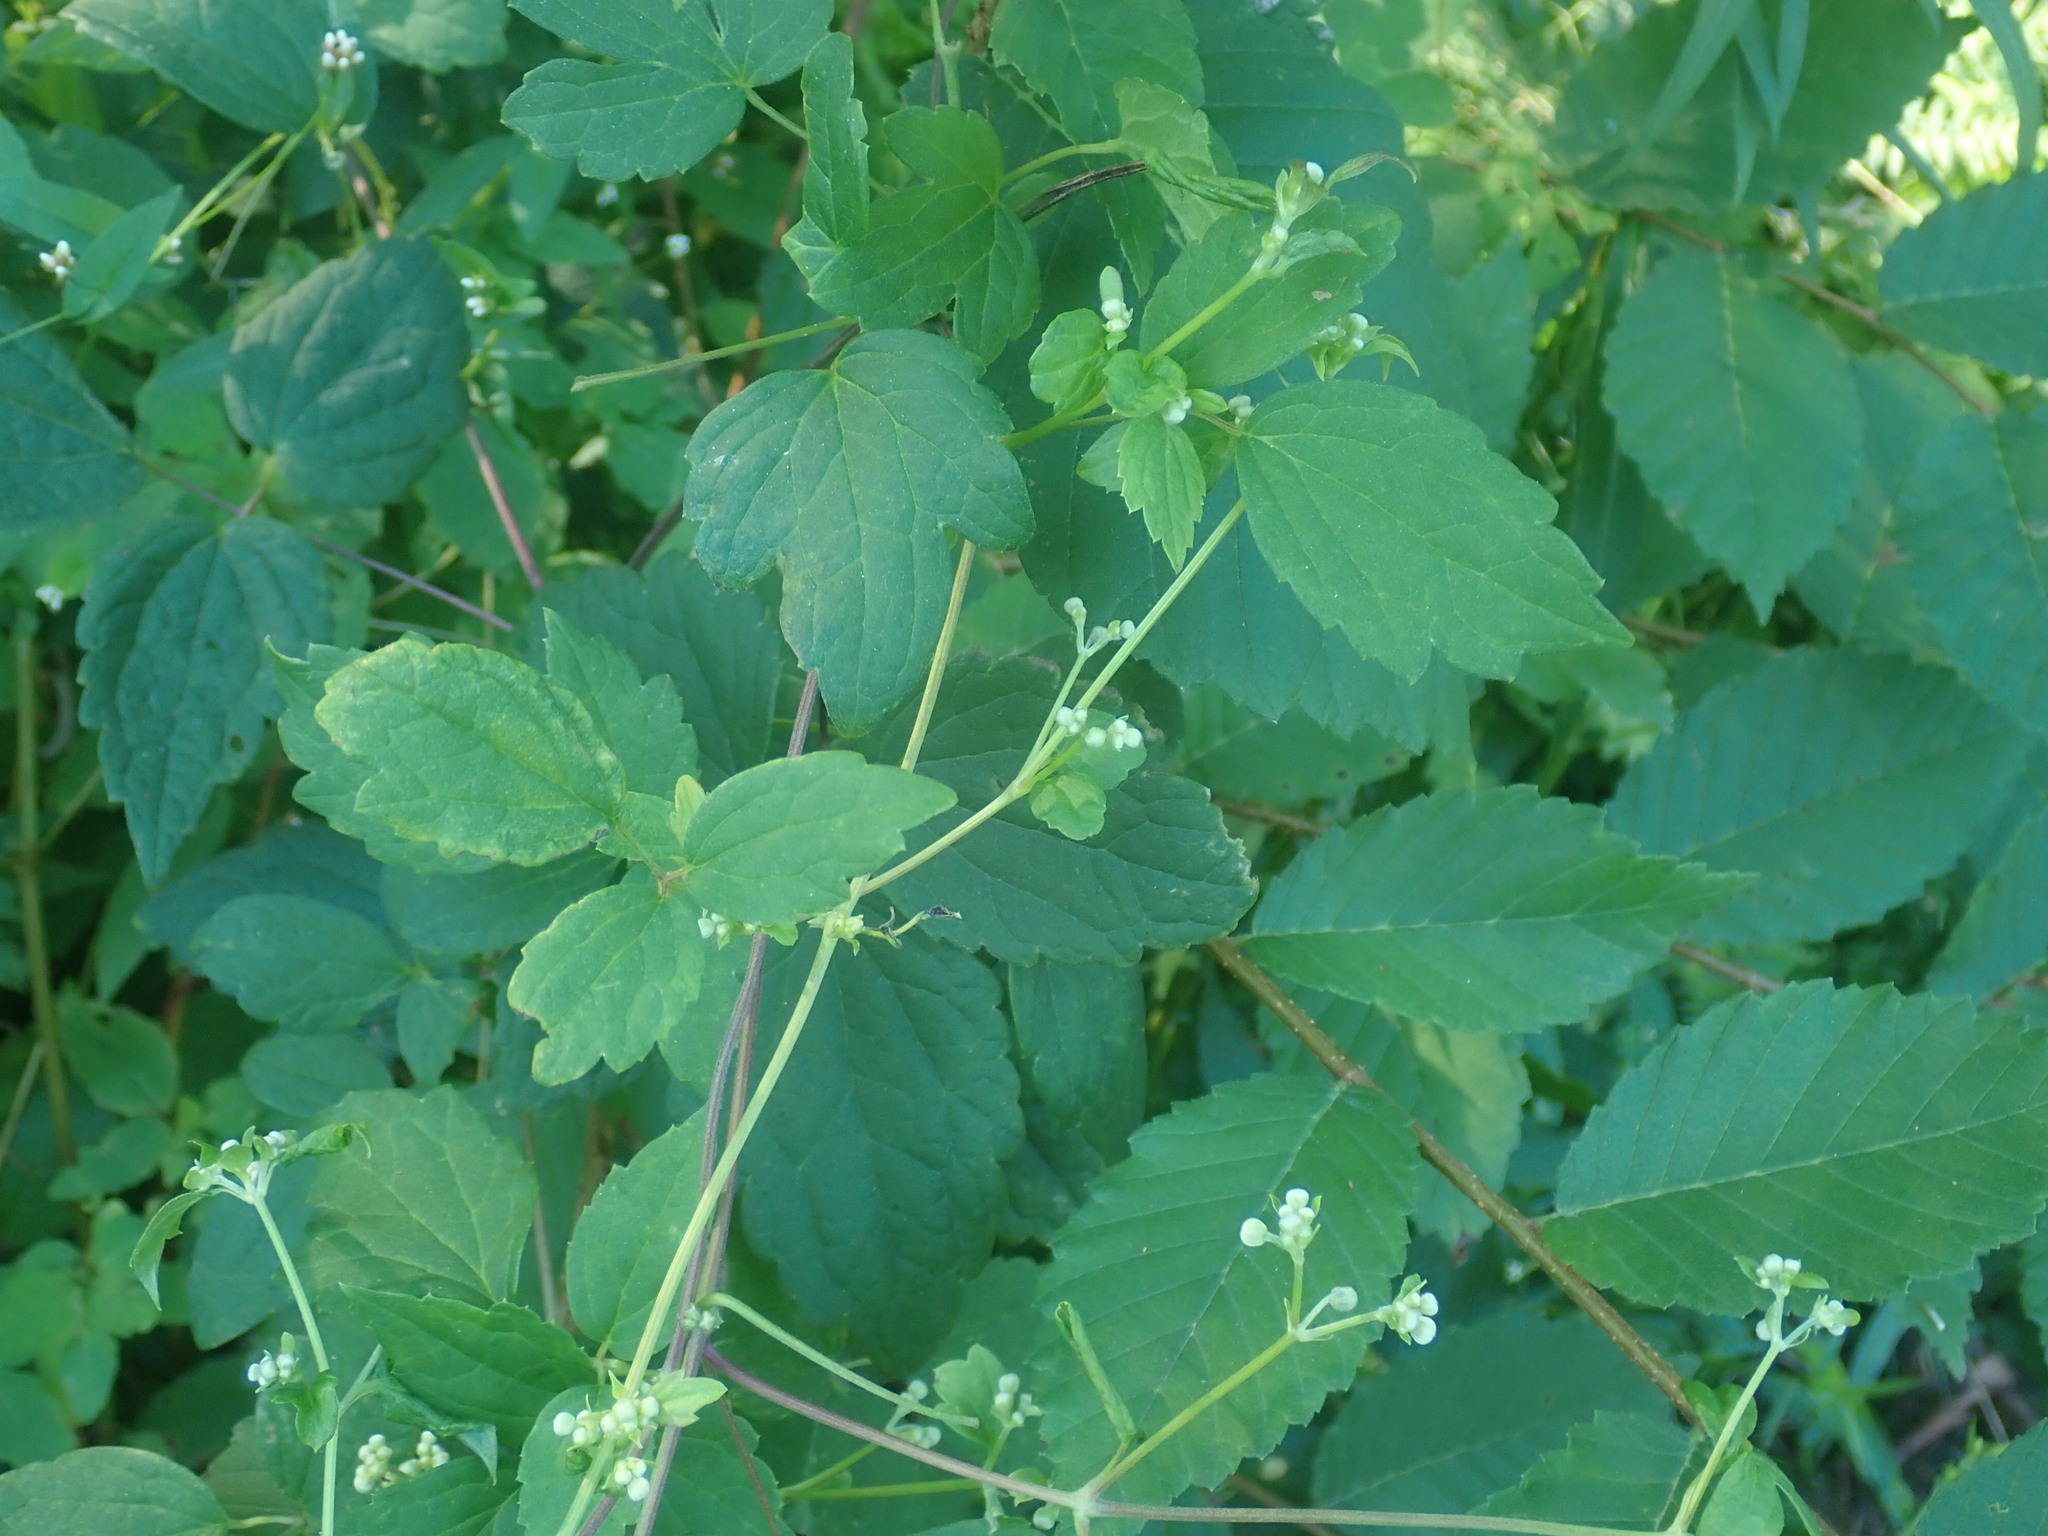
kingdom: Plantae
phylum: Tracheophyta
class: Magnoliopsida
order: Ranunculales
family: Ranunculaceae
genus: Clematis
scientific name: Clematis virginiana
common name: Virgin's-bower
